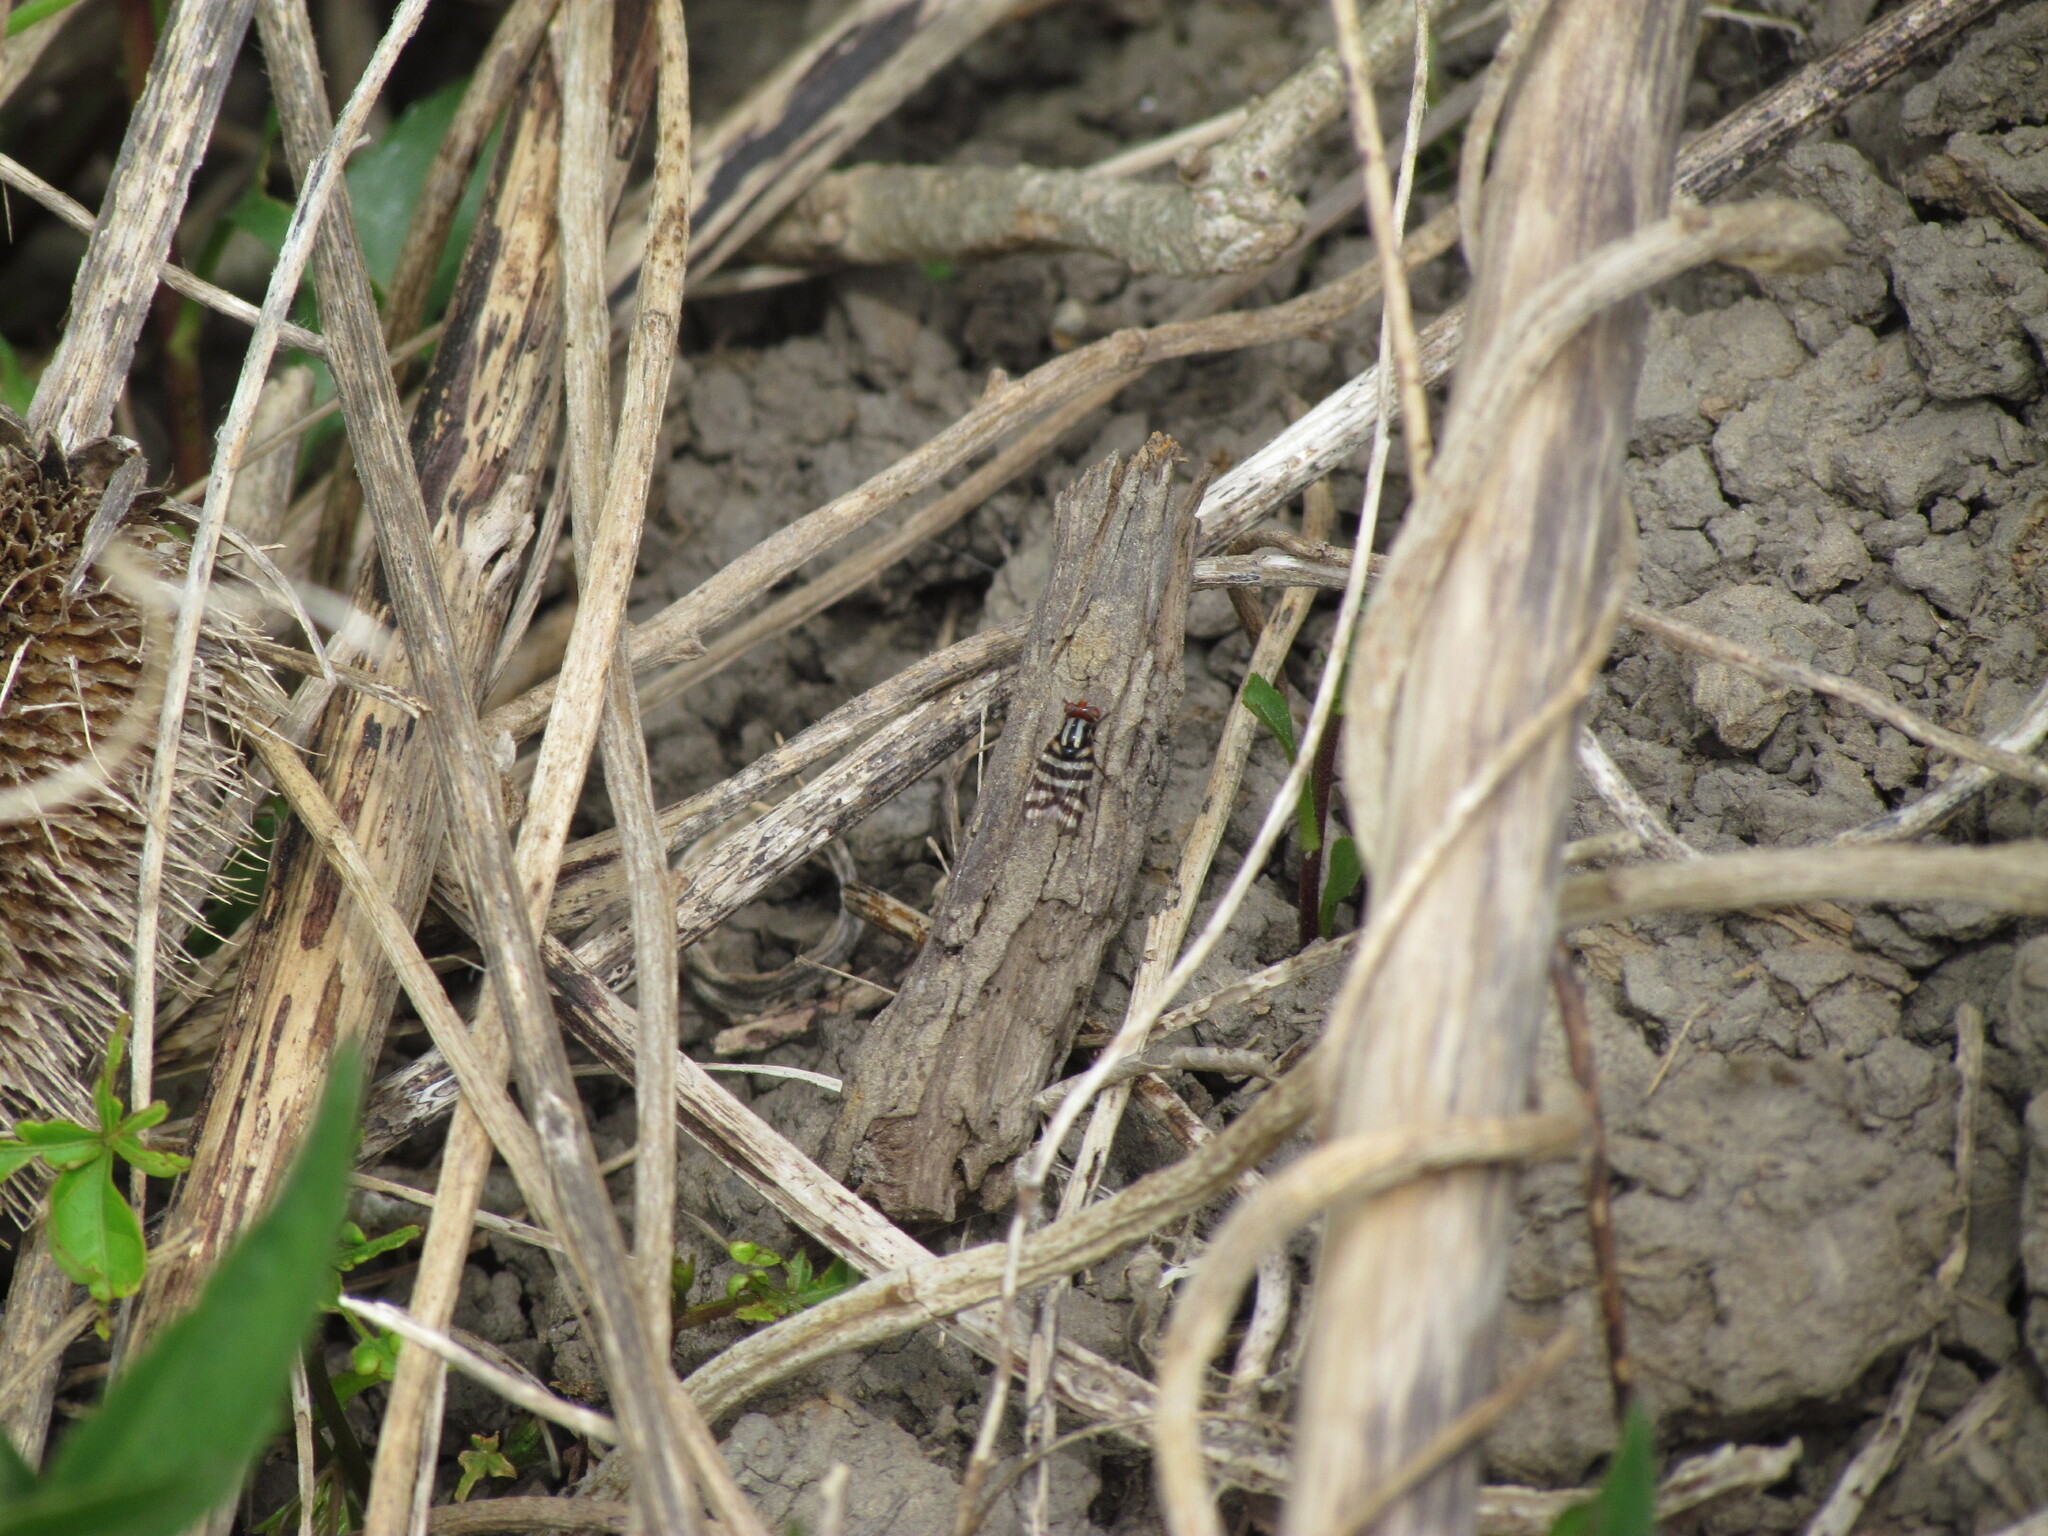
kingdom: Animalia
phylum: Arthropoda
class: Insecta
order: Diptera
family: Ulidiidae
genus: Pterotaenia
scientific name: Pterotaenia fasciata
